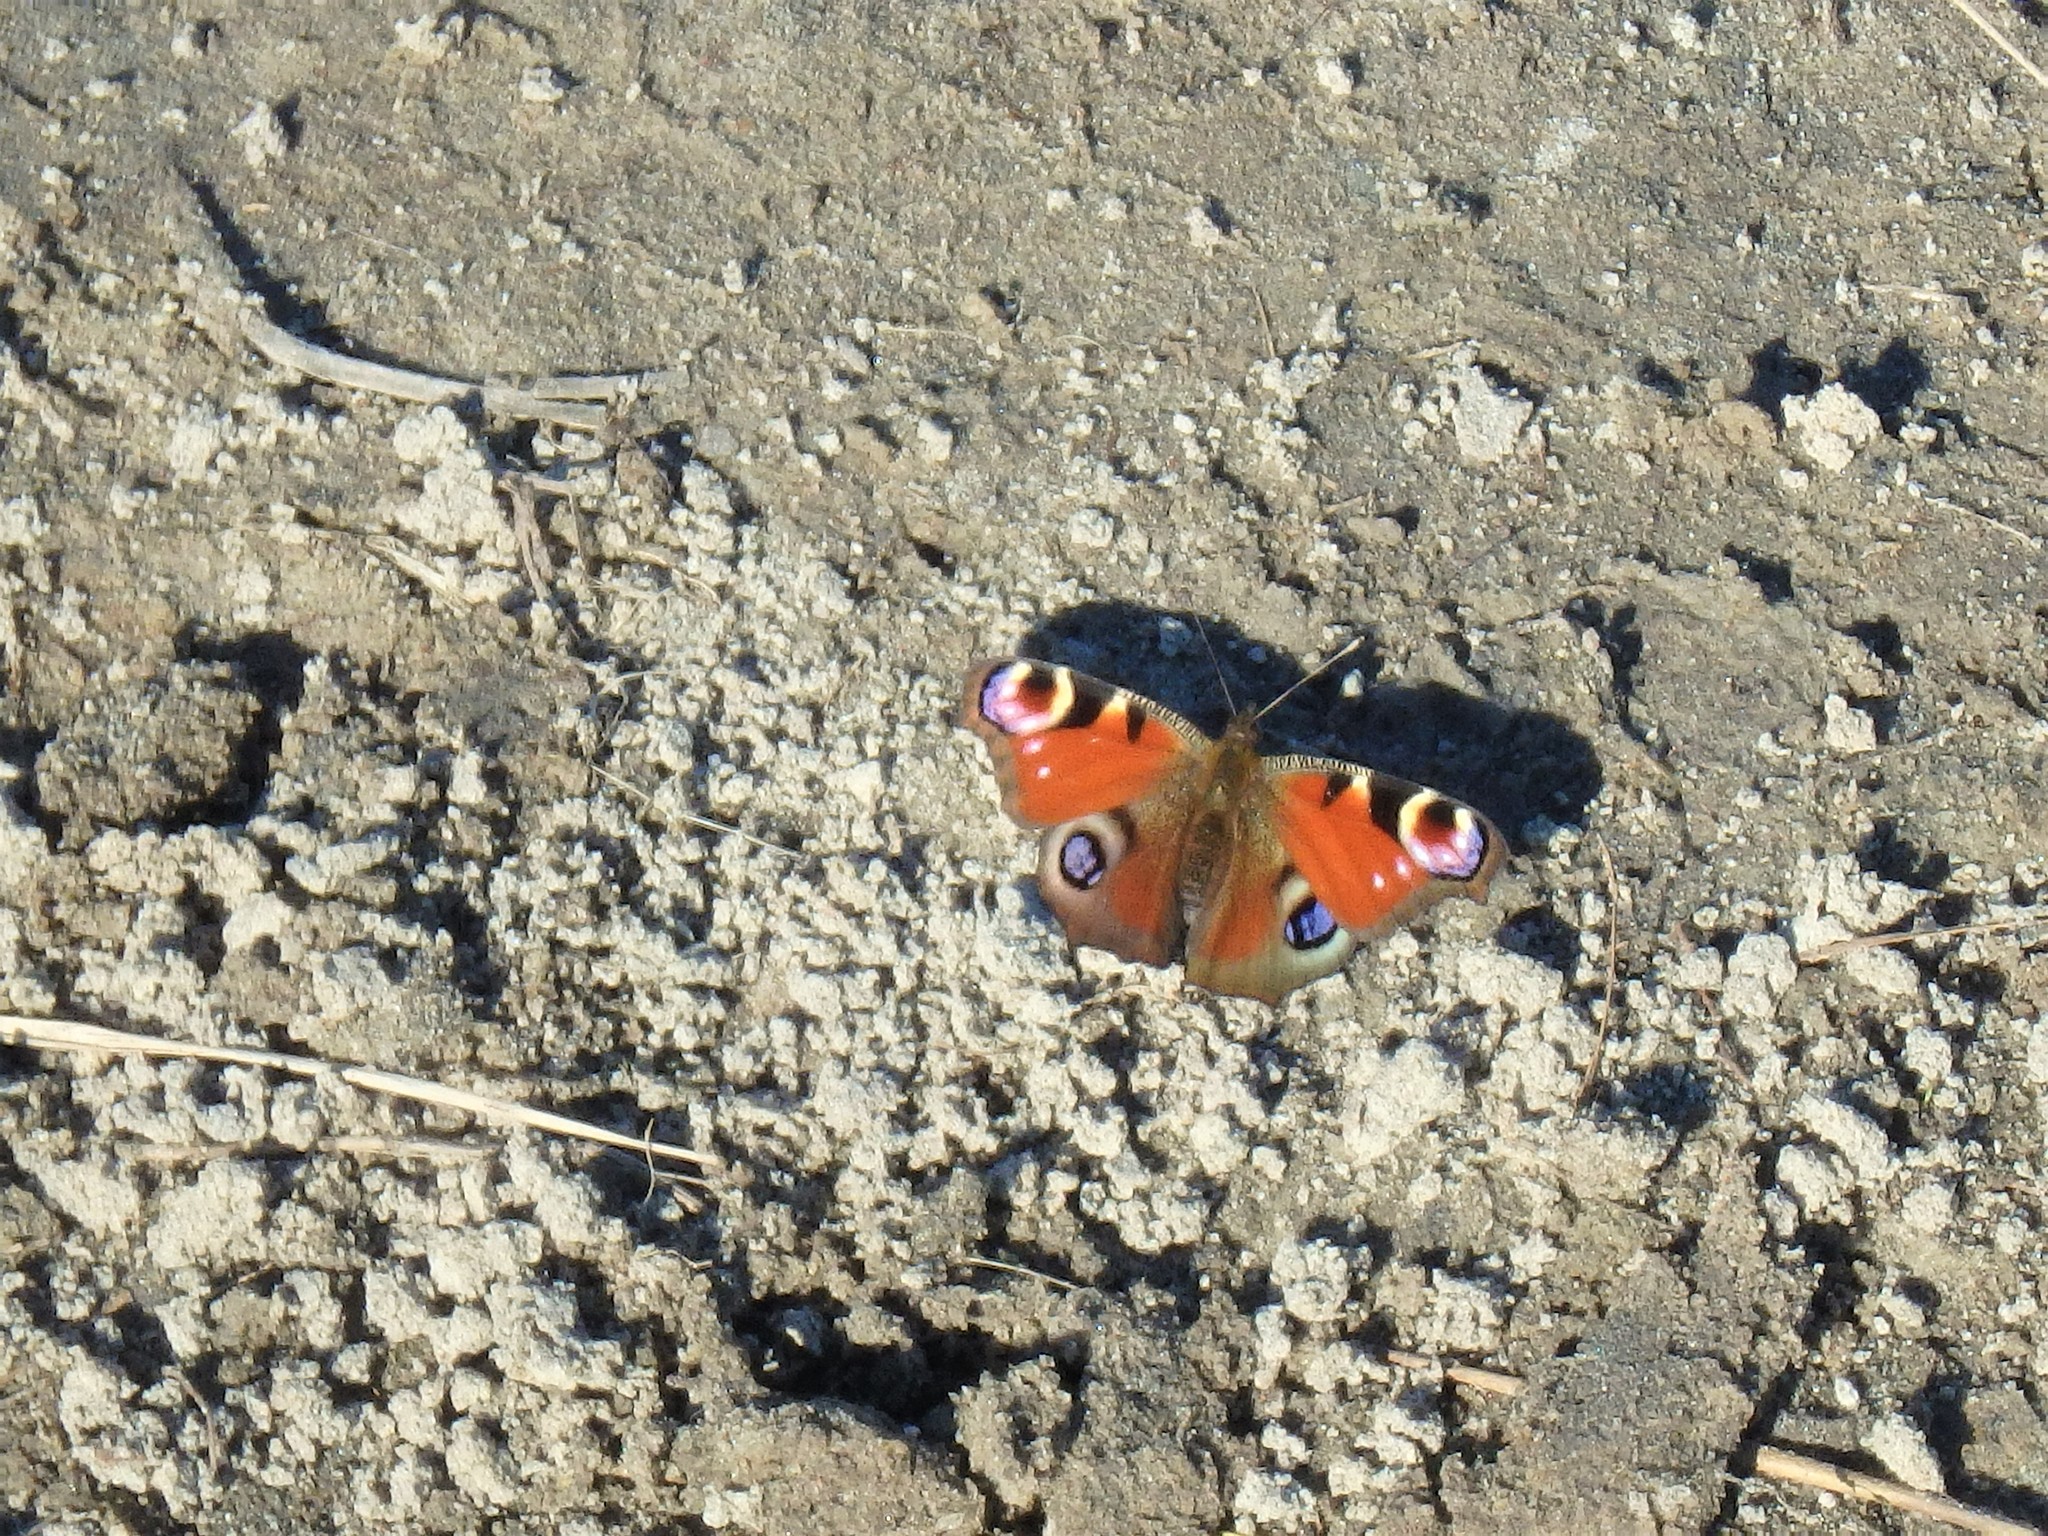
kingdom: Animalia
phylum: Arthropoda
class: Insecta
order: Lepidoptera
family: Nymphalidae
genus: Aglais
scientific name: Aglais io
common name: Peacock
